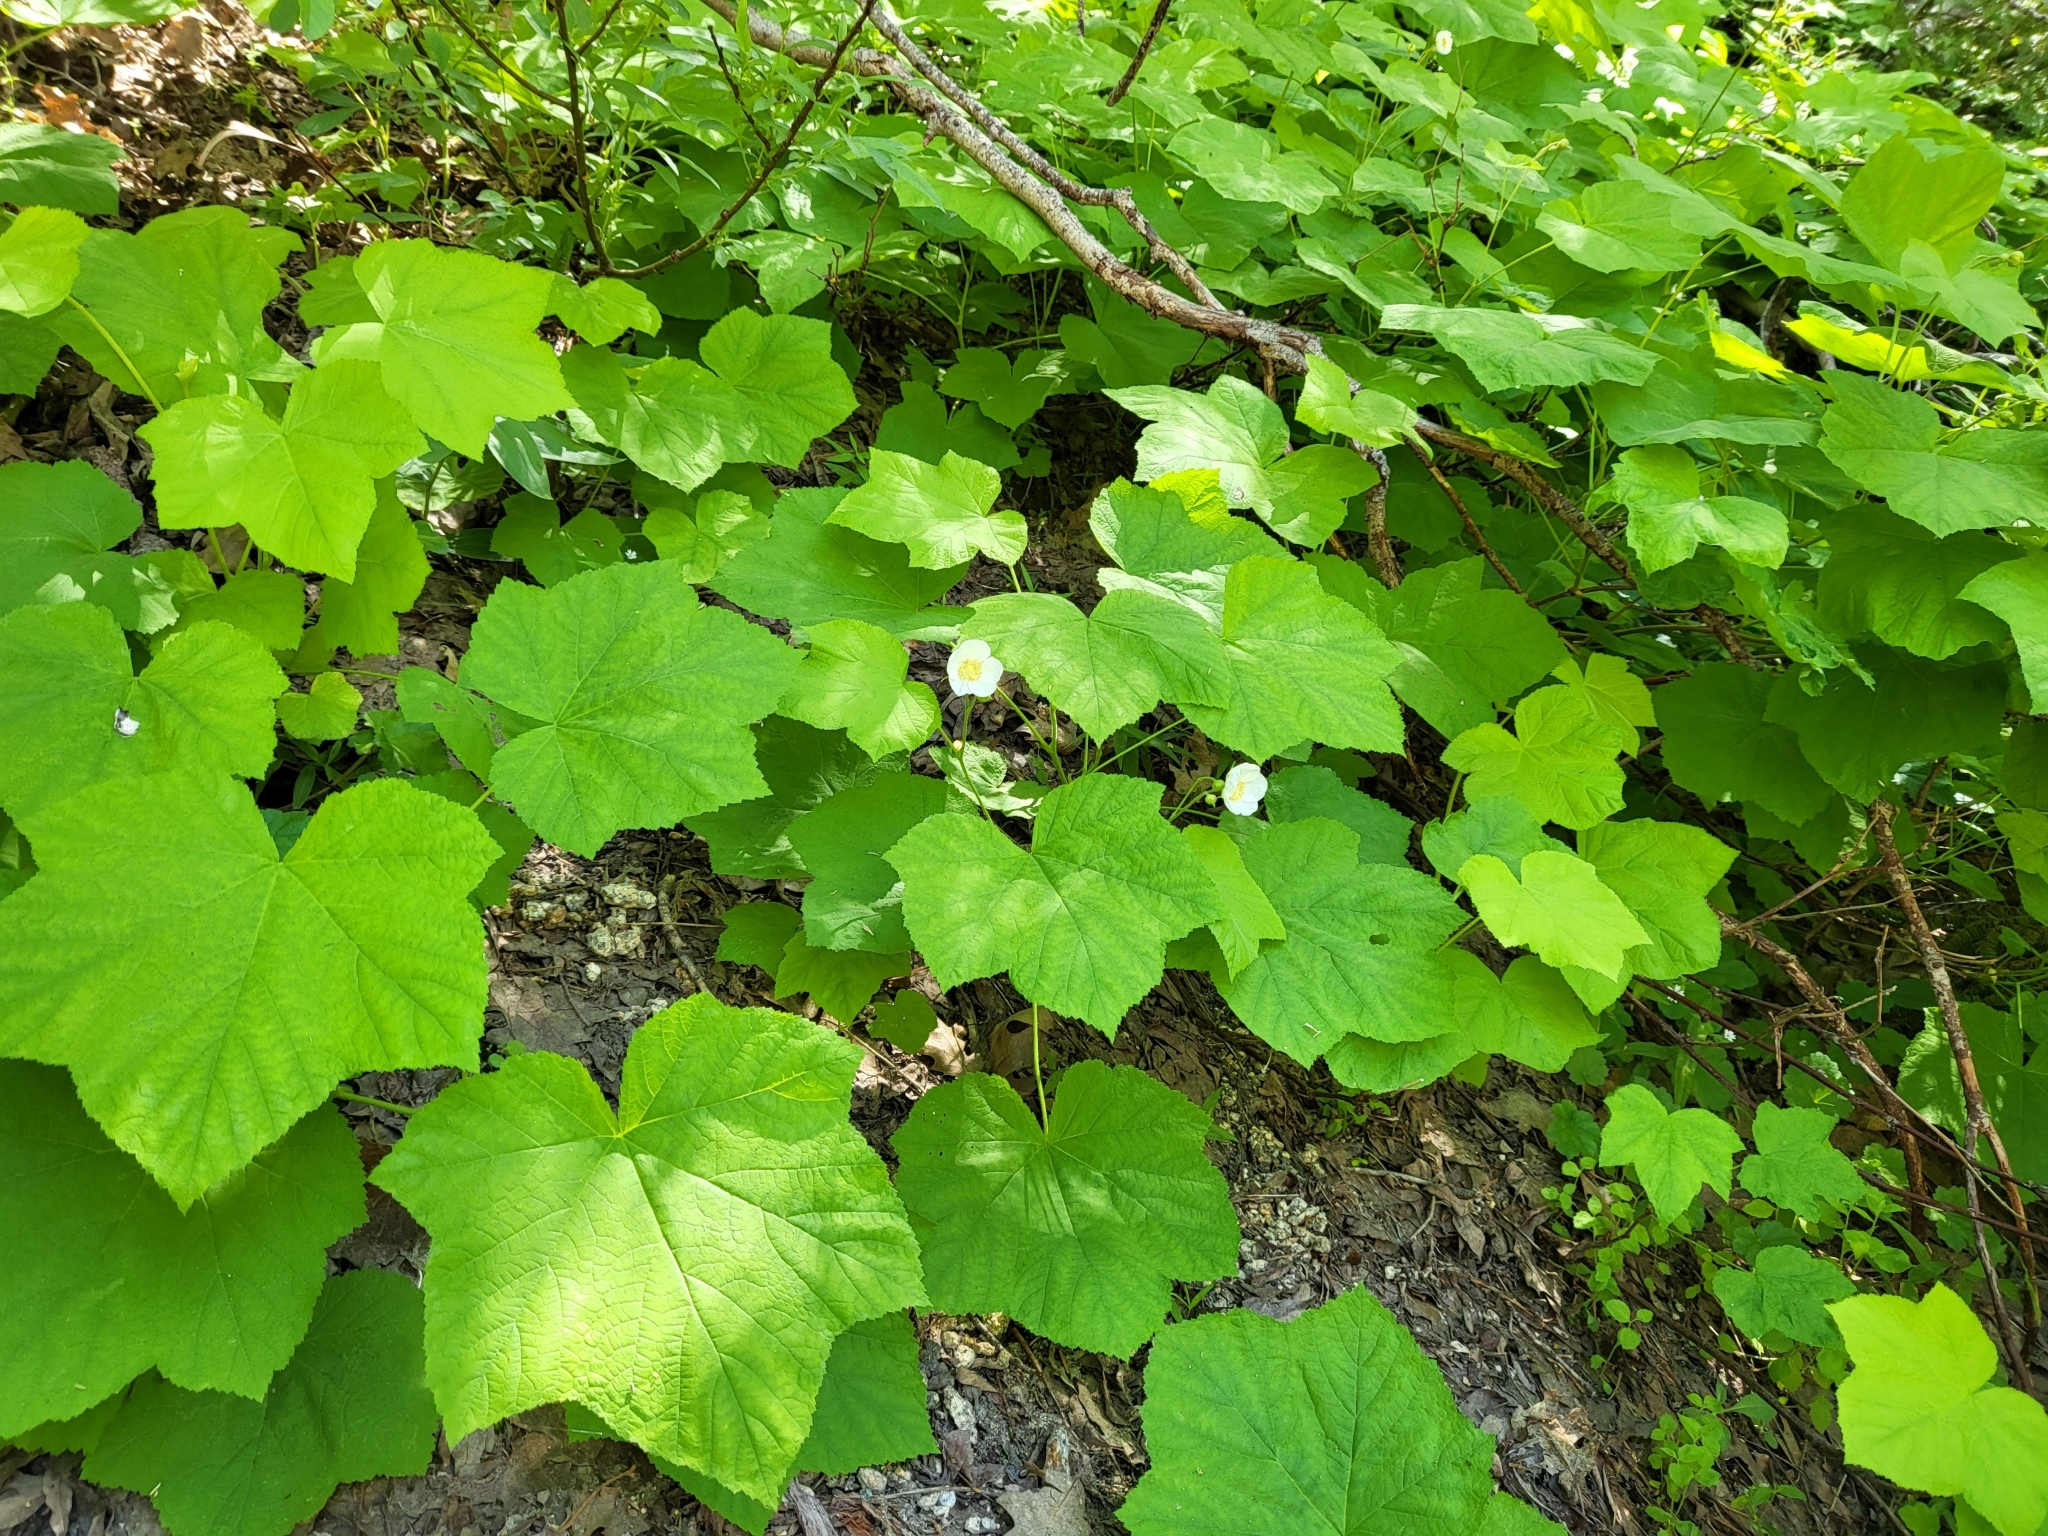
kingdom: Plantae
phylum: Tracheophyta
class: Magnoliopsida
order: Rosales
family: Rosaceae
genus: Rubus
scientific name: Rubus parviflorus
